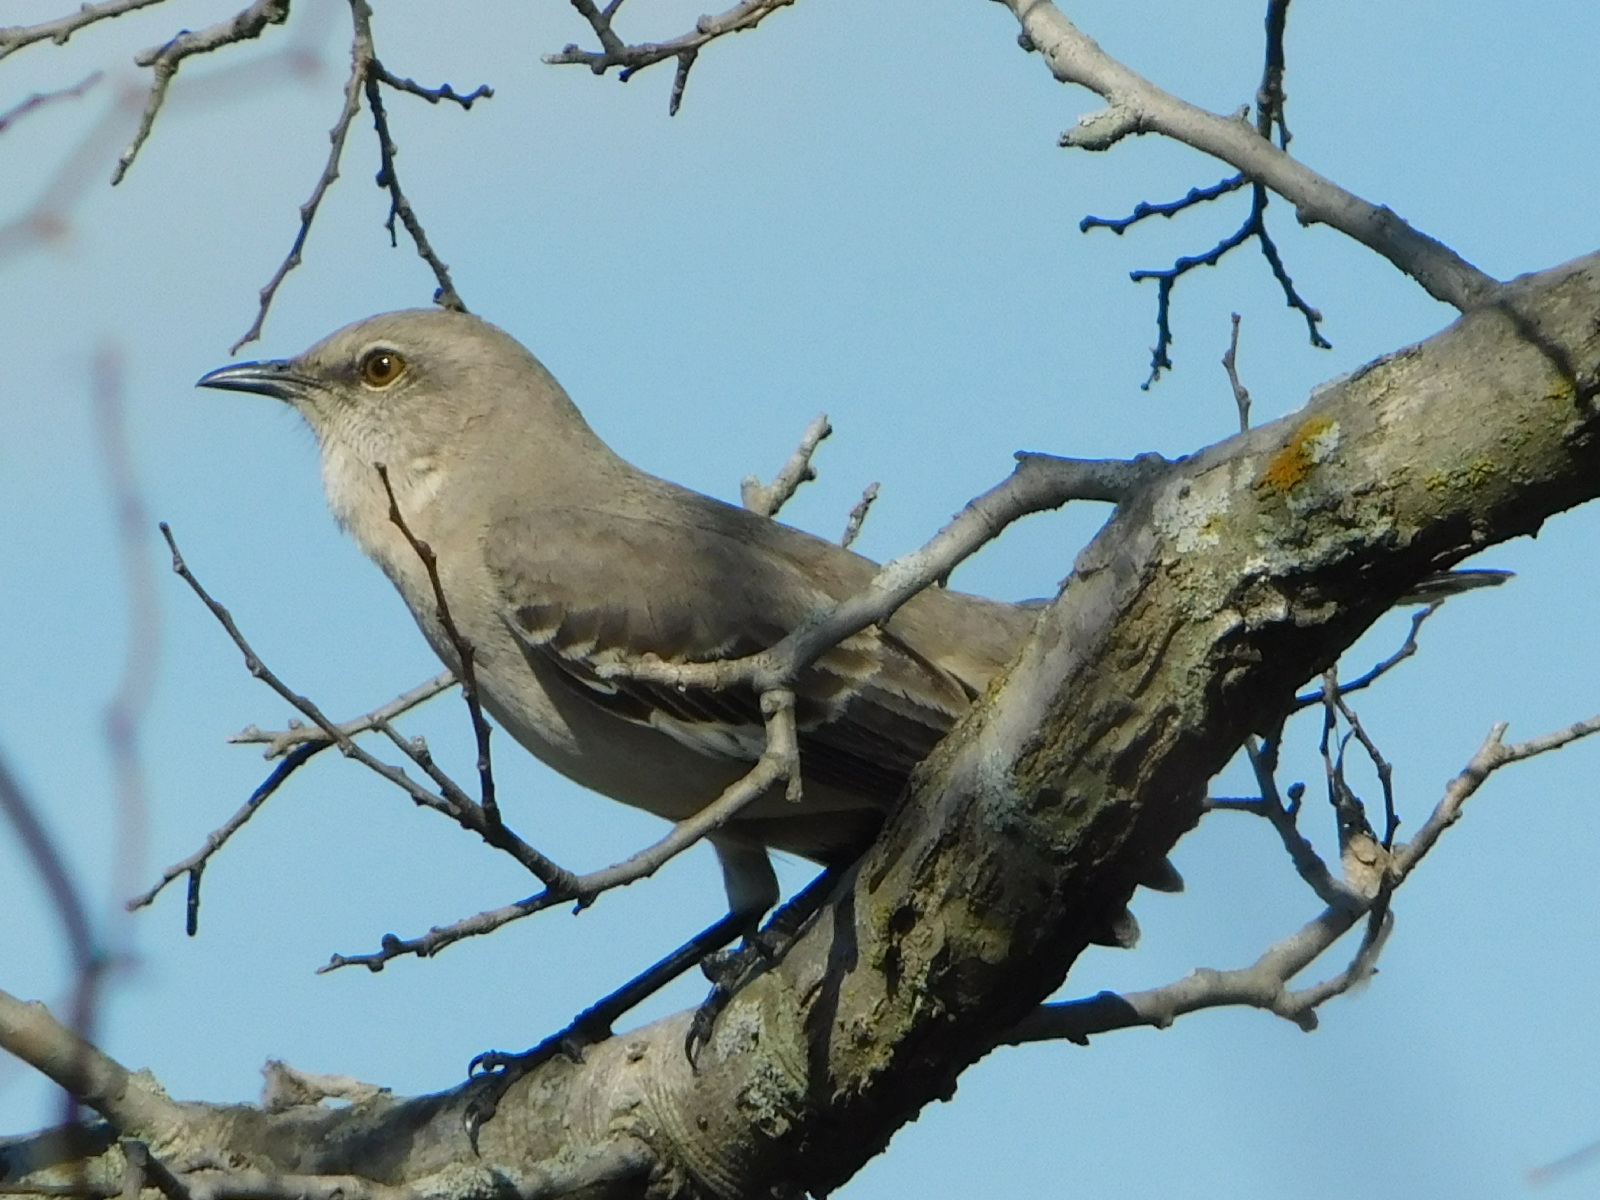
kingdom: Animalia
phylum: Chordata
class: Aves
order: Passeriformes
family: Mimidae
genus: Mimus
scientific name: Mimus polyglottos
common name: Northern mockingbird
